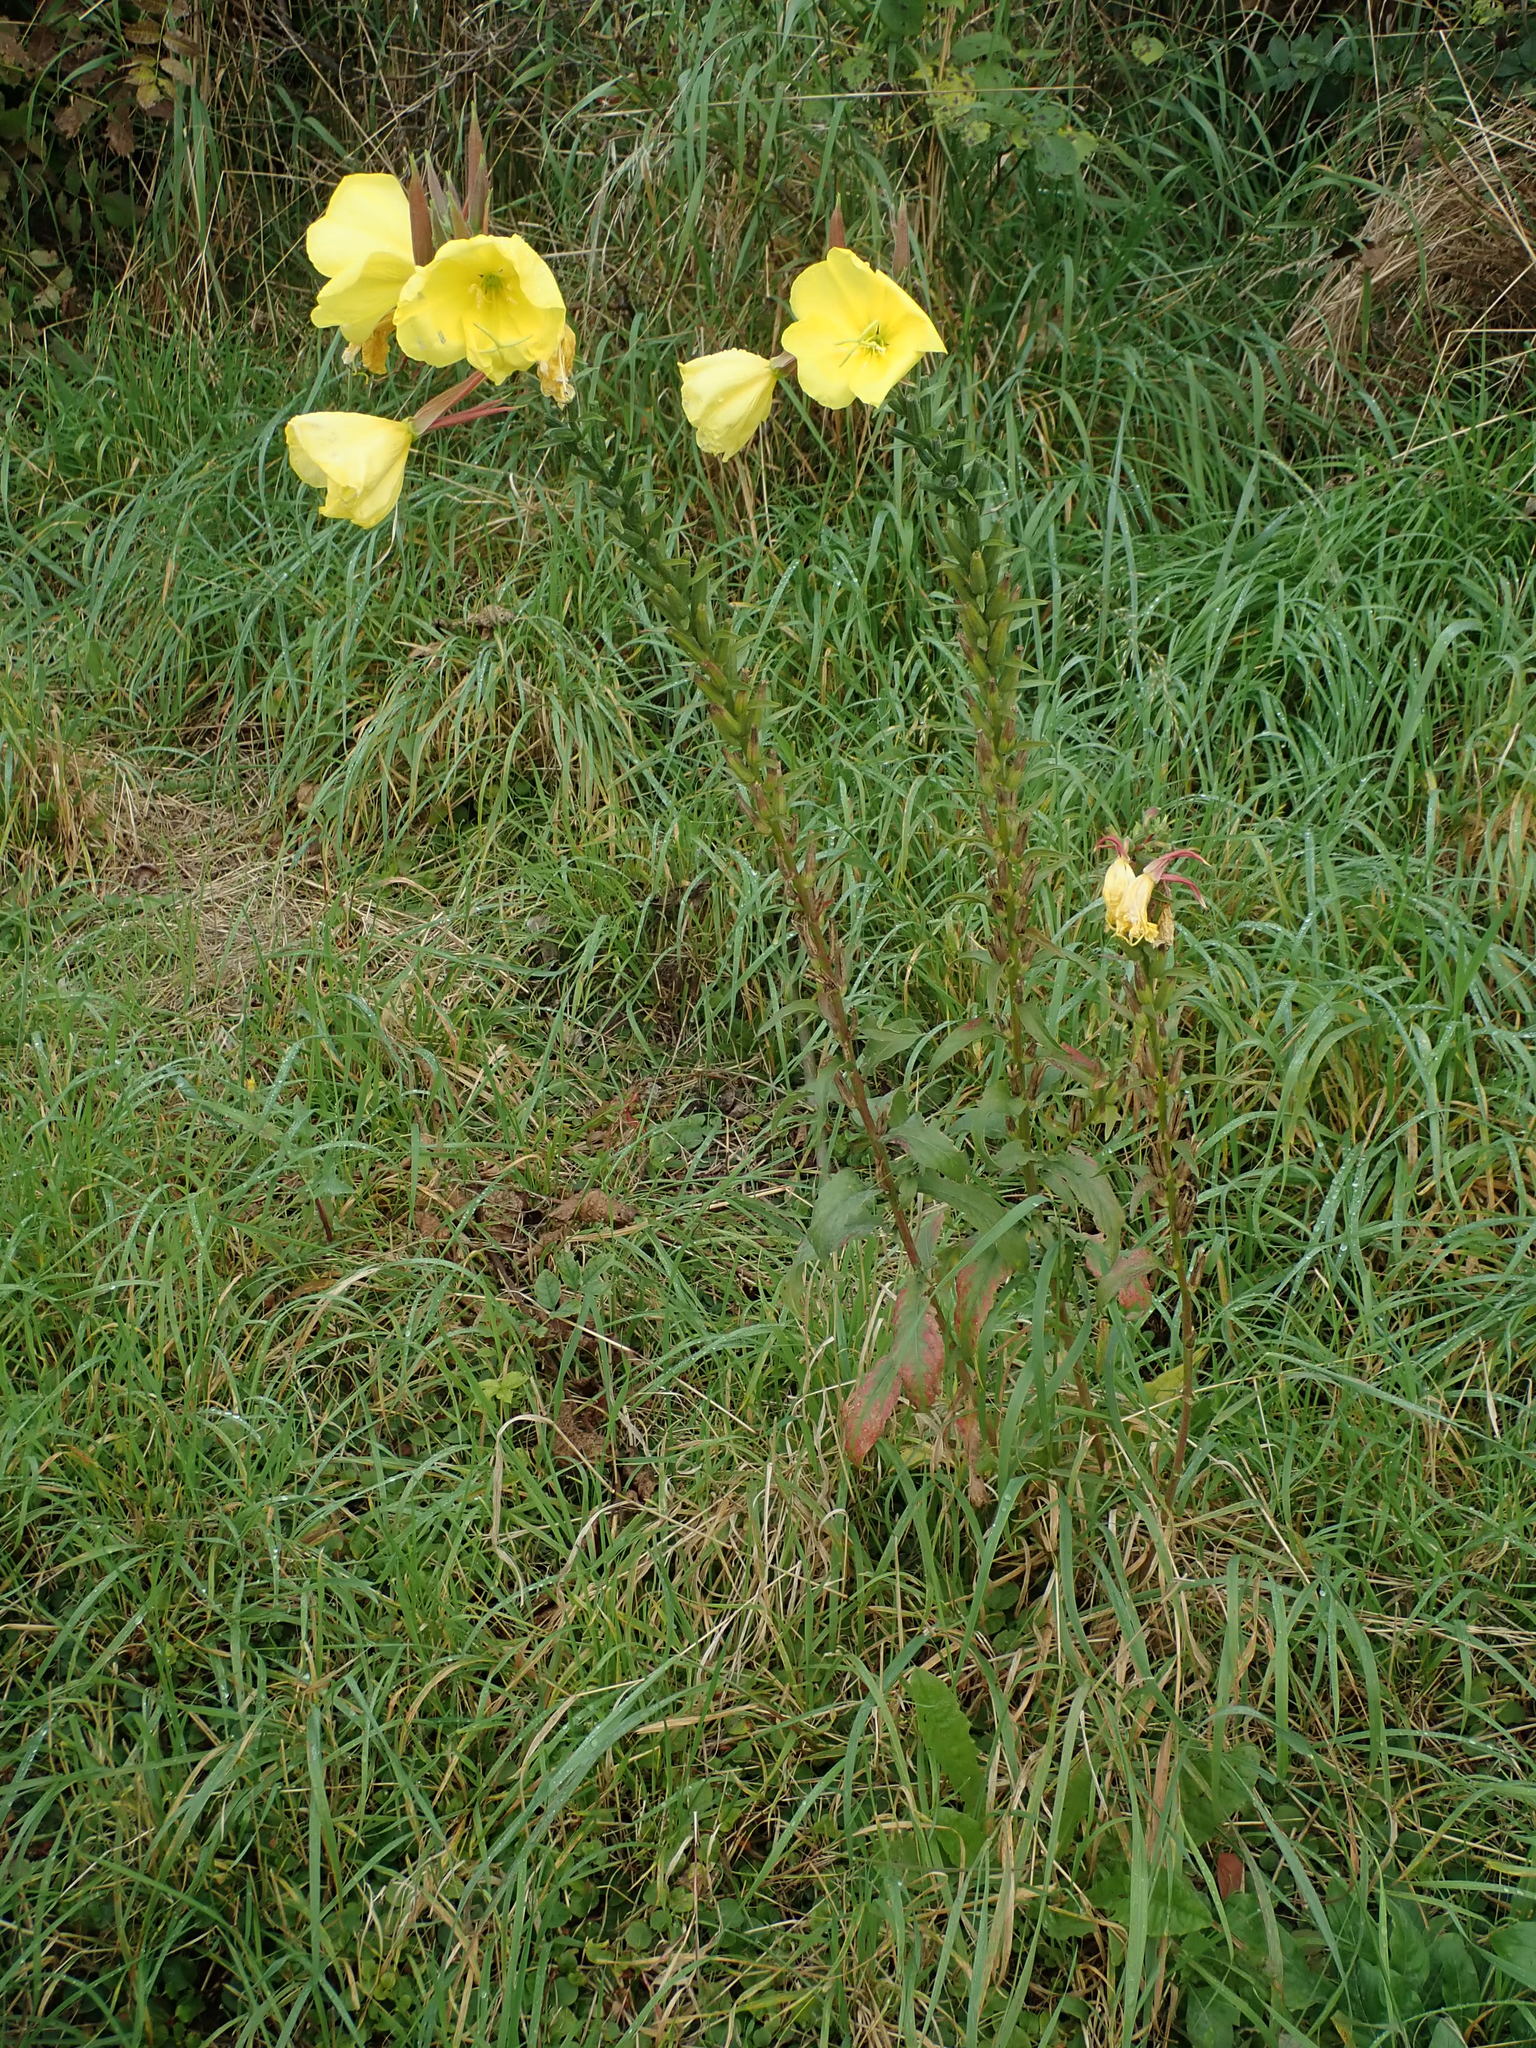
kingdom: Plantae
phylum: Tracheophyta
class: Magnoliopsida
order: Myrtales
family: Onagraceae
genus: Oenothera
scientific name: Oenothera glazioviana
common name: Large-flowered evening-primrose
